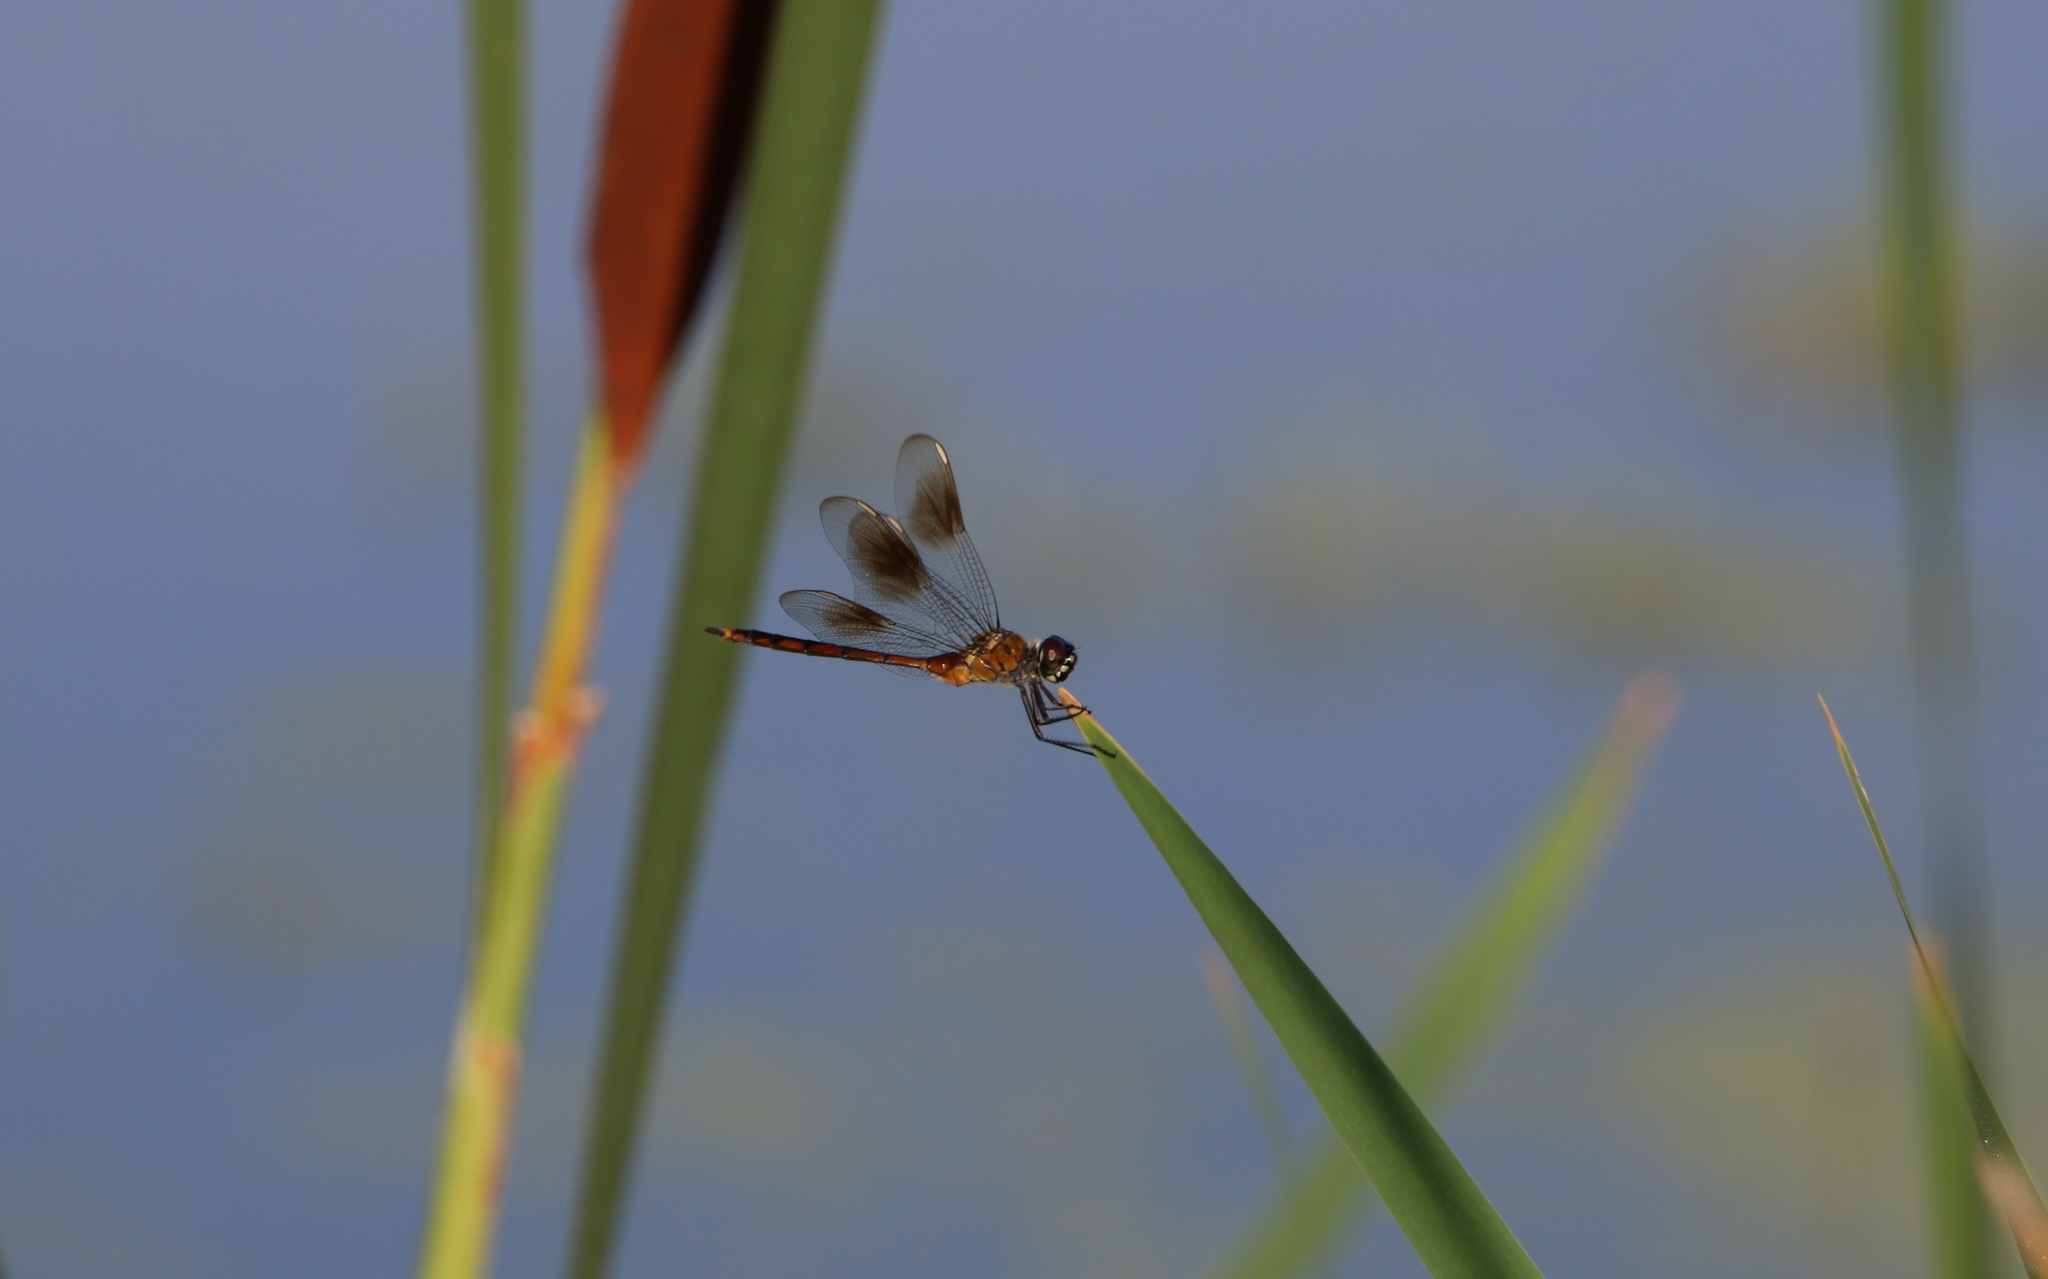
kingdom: Animalia
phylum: Arthropoda
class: Insecta
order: Odonata
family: Libellulidae
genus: Brachymesia
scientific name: Brachymesia gravida
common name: Four-spotted pennant
